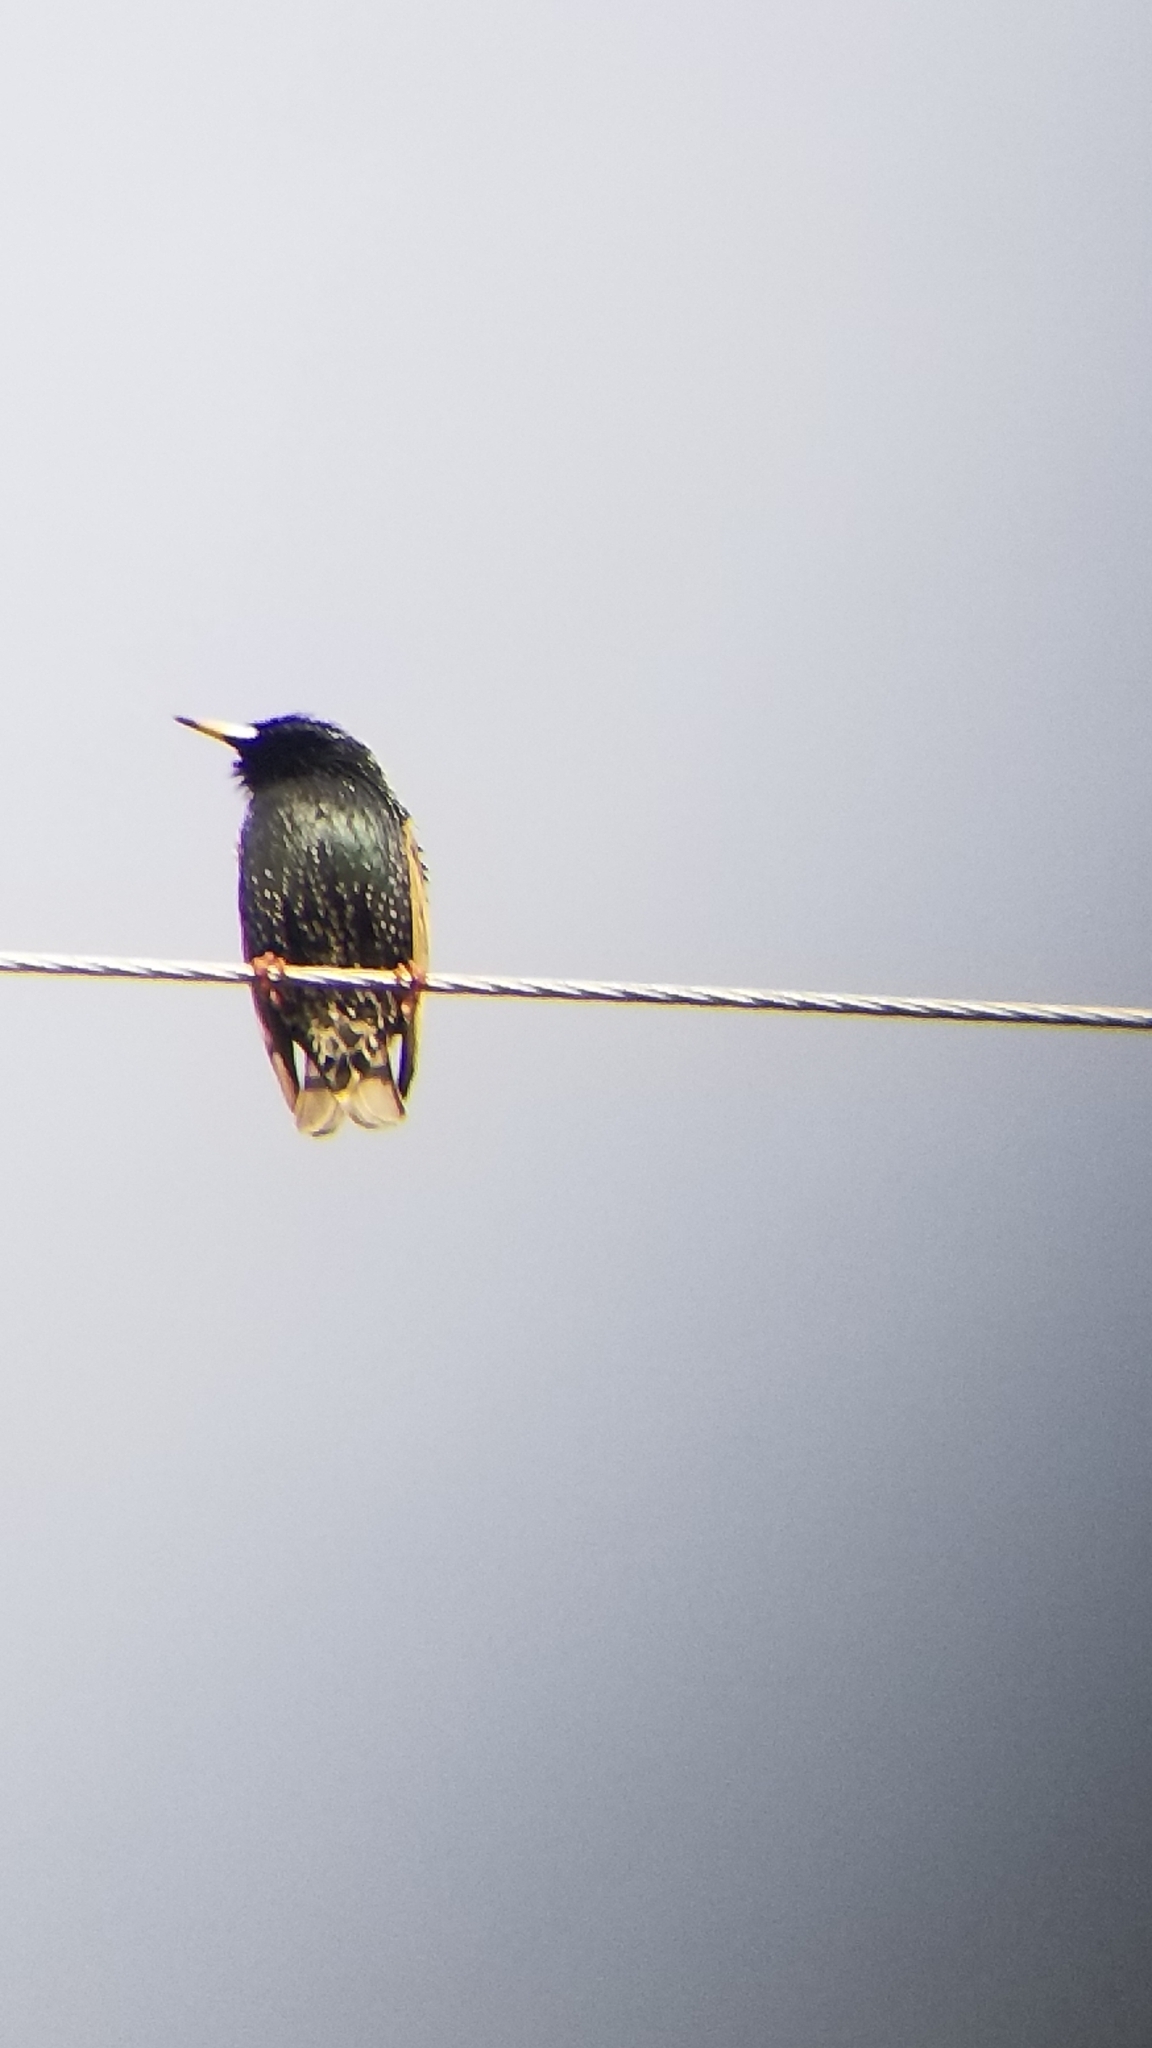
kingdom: Animalia
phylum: Chordata
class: Aves
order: Passeriformes
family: Sturnidae
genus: Sturnus
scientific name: Sturnus vulgaris
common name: Common starling
